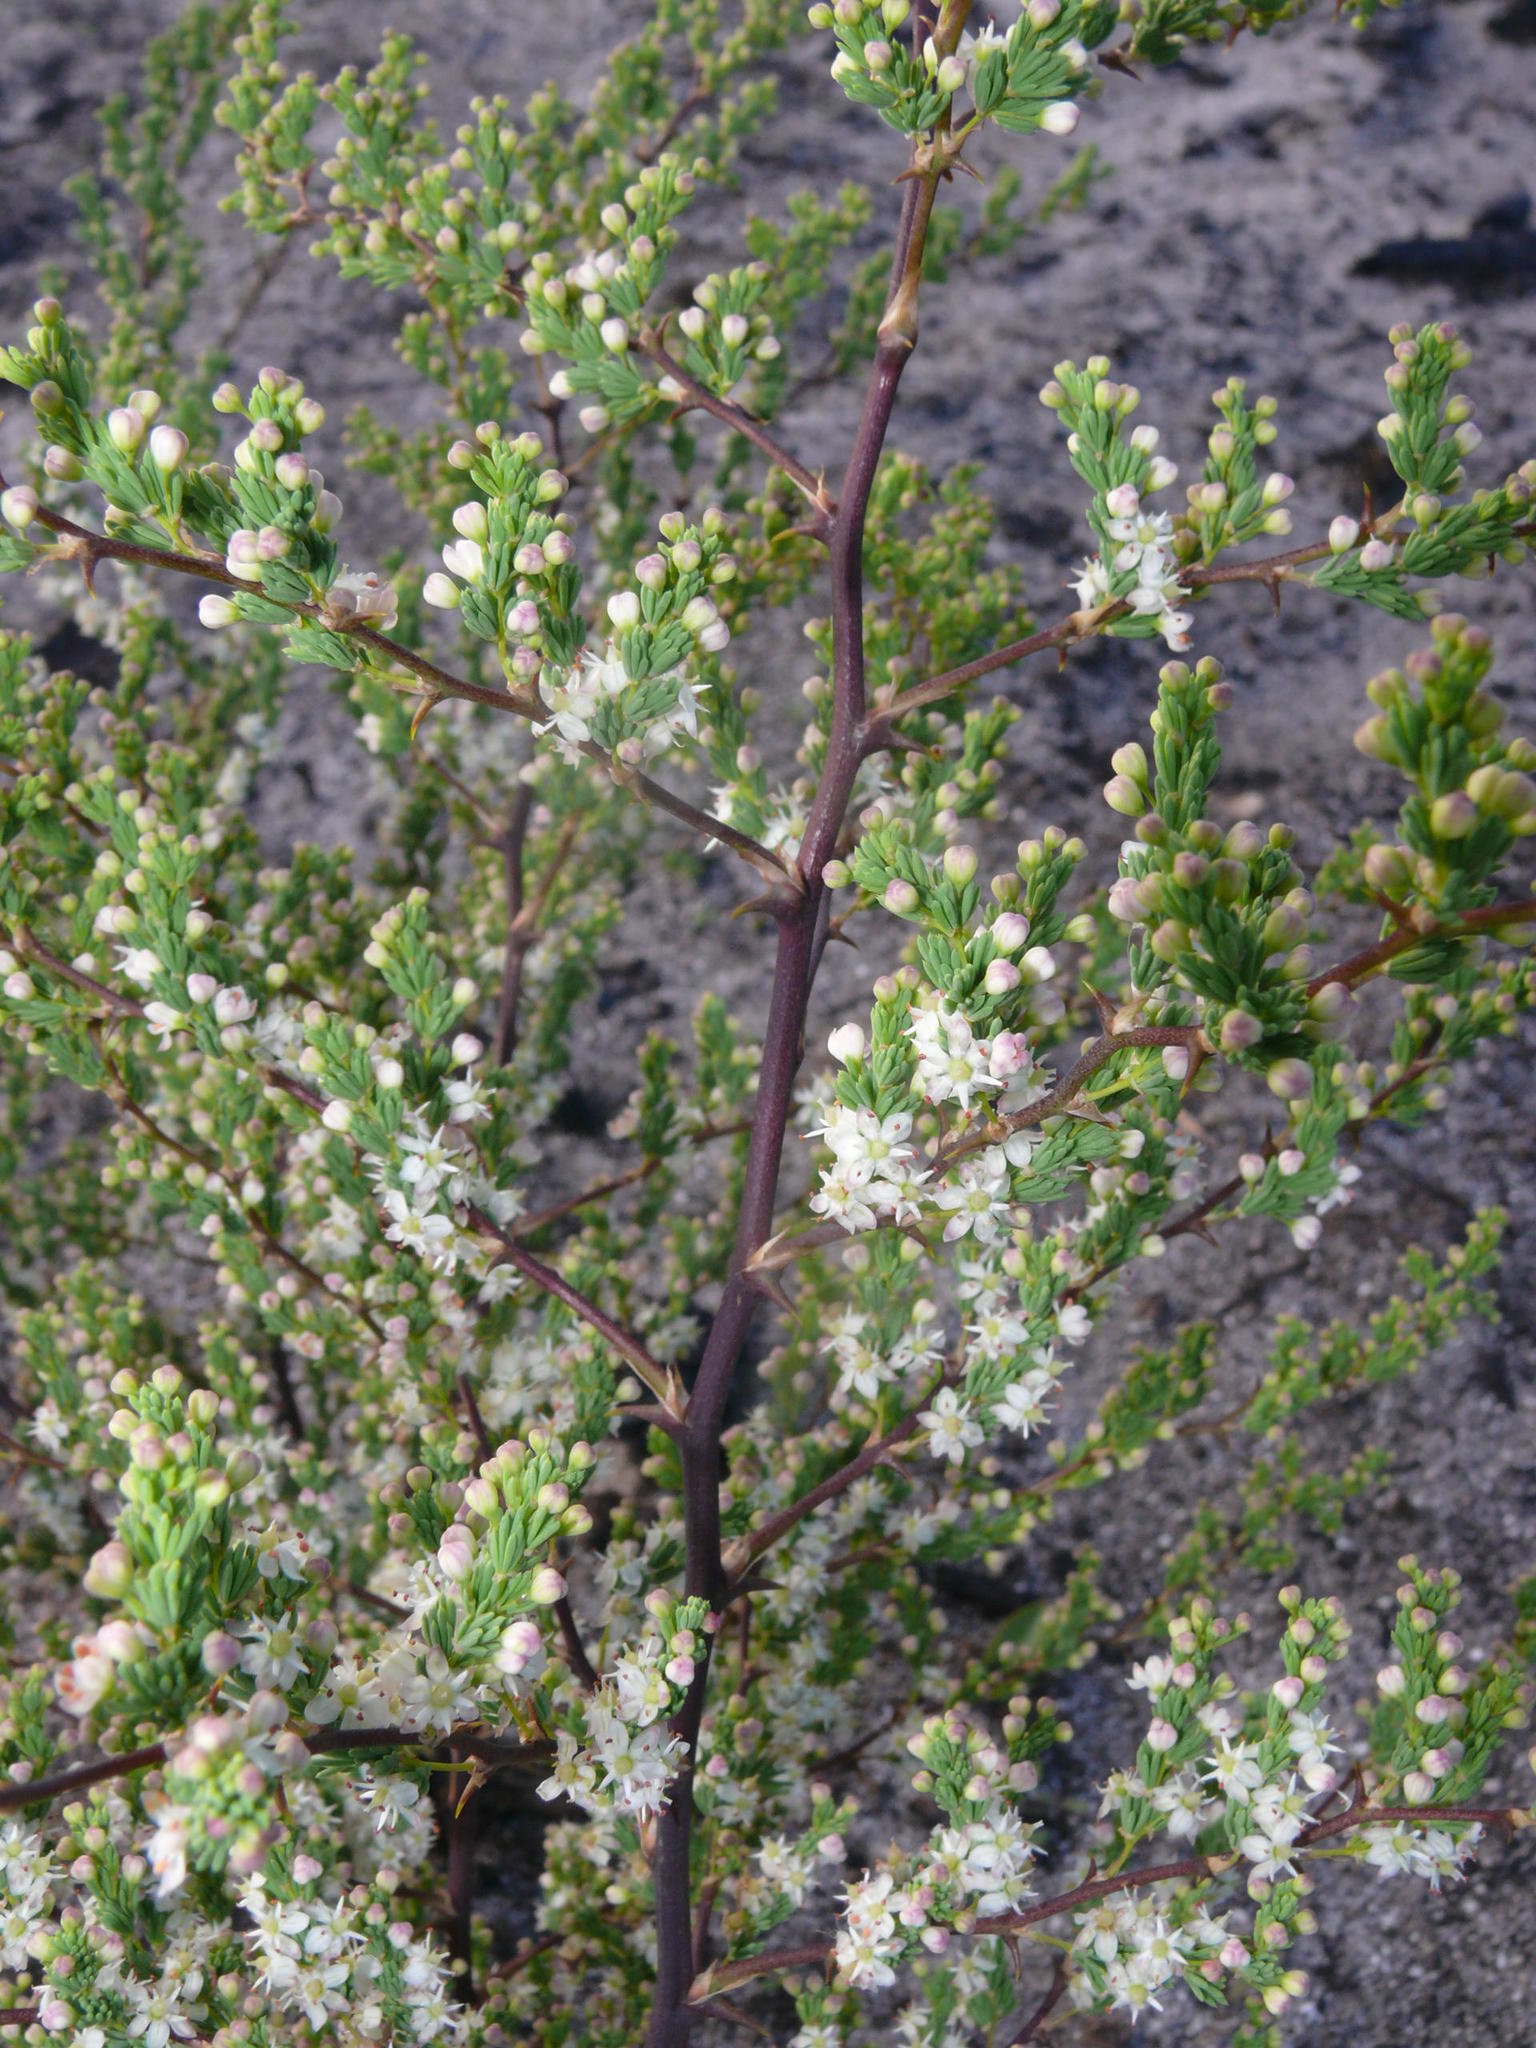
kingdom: Plantae
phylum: Tracheophyta
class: Liliopsida
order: Asparagales
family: Asparagaceae
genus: Asparagus
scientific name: Asparagus rubicundus
